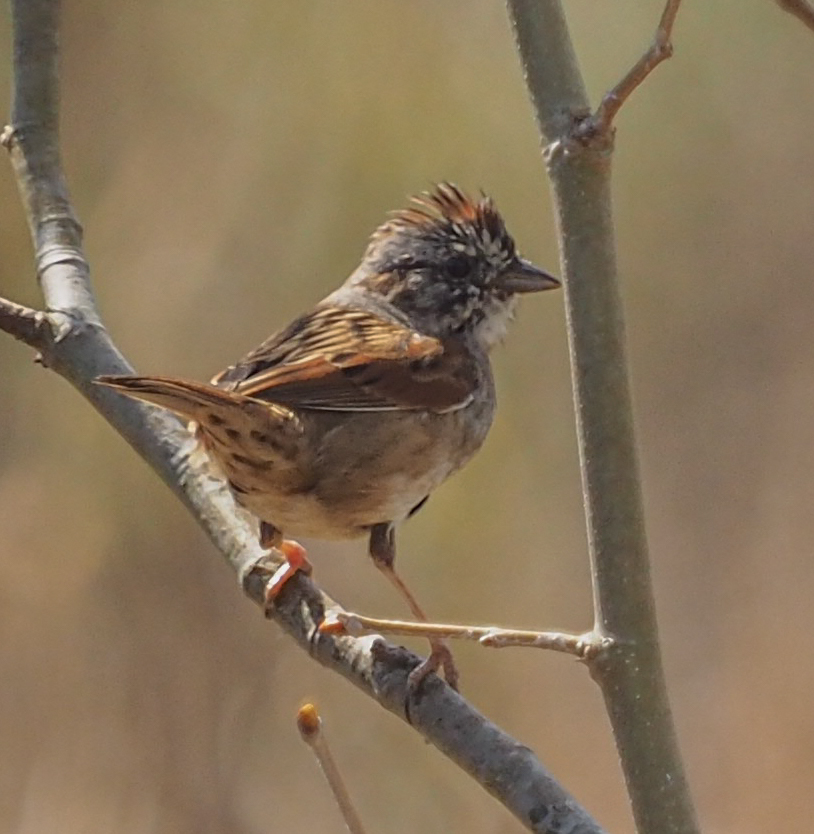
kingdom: Animalia
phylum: Chordata
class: Aves
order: Passeriformes
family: Passerellidae
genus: Melospiza
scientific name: Melospiza georgiana
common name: Swamp sparrow
